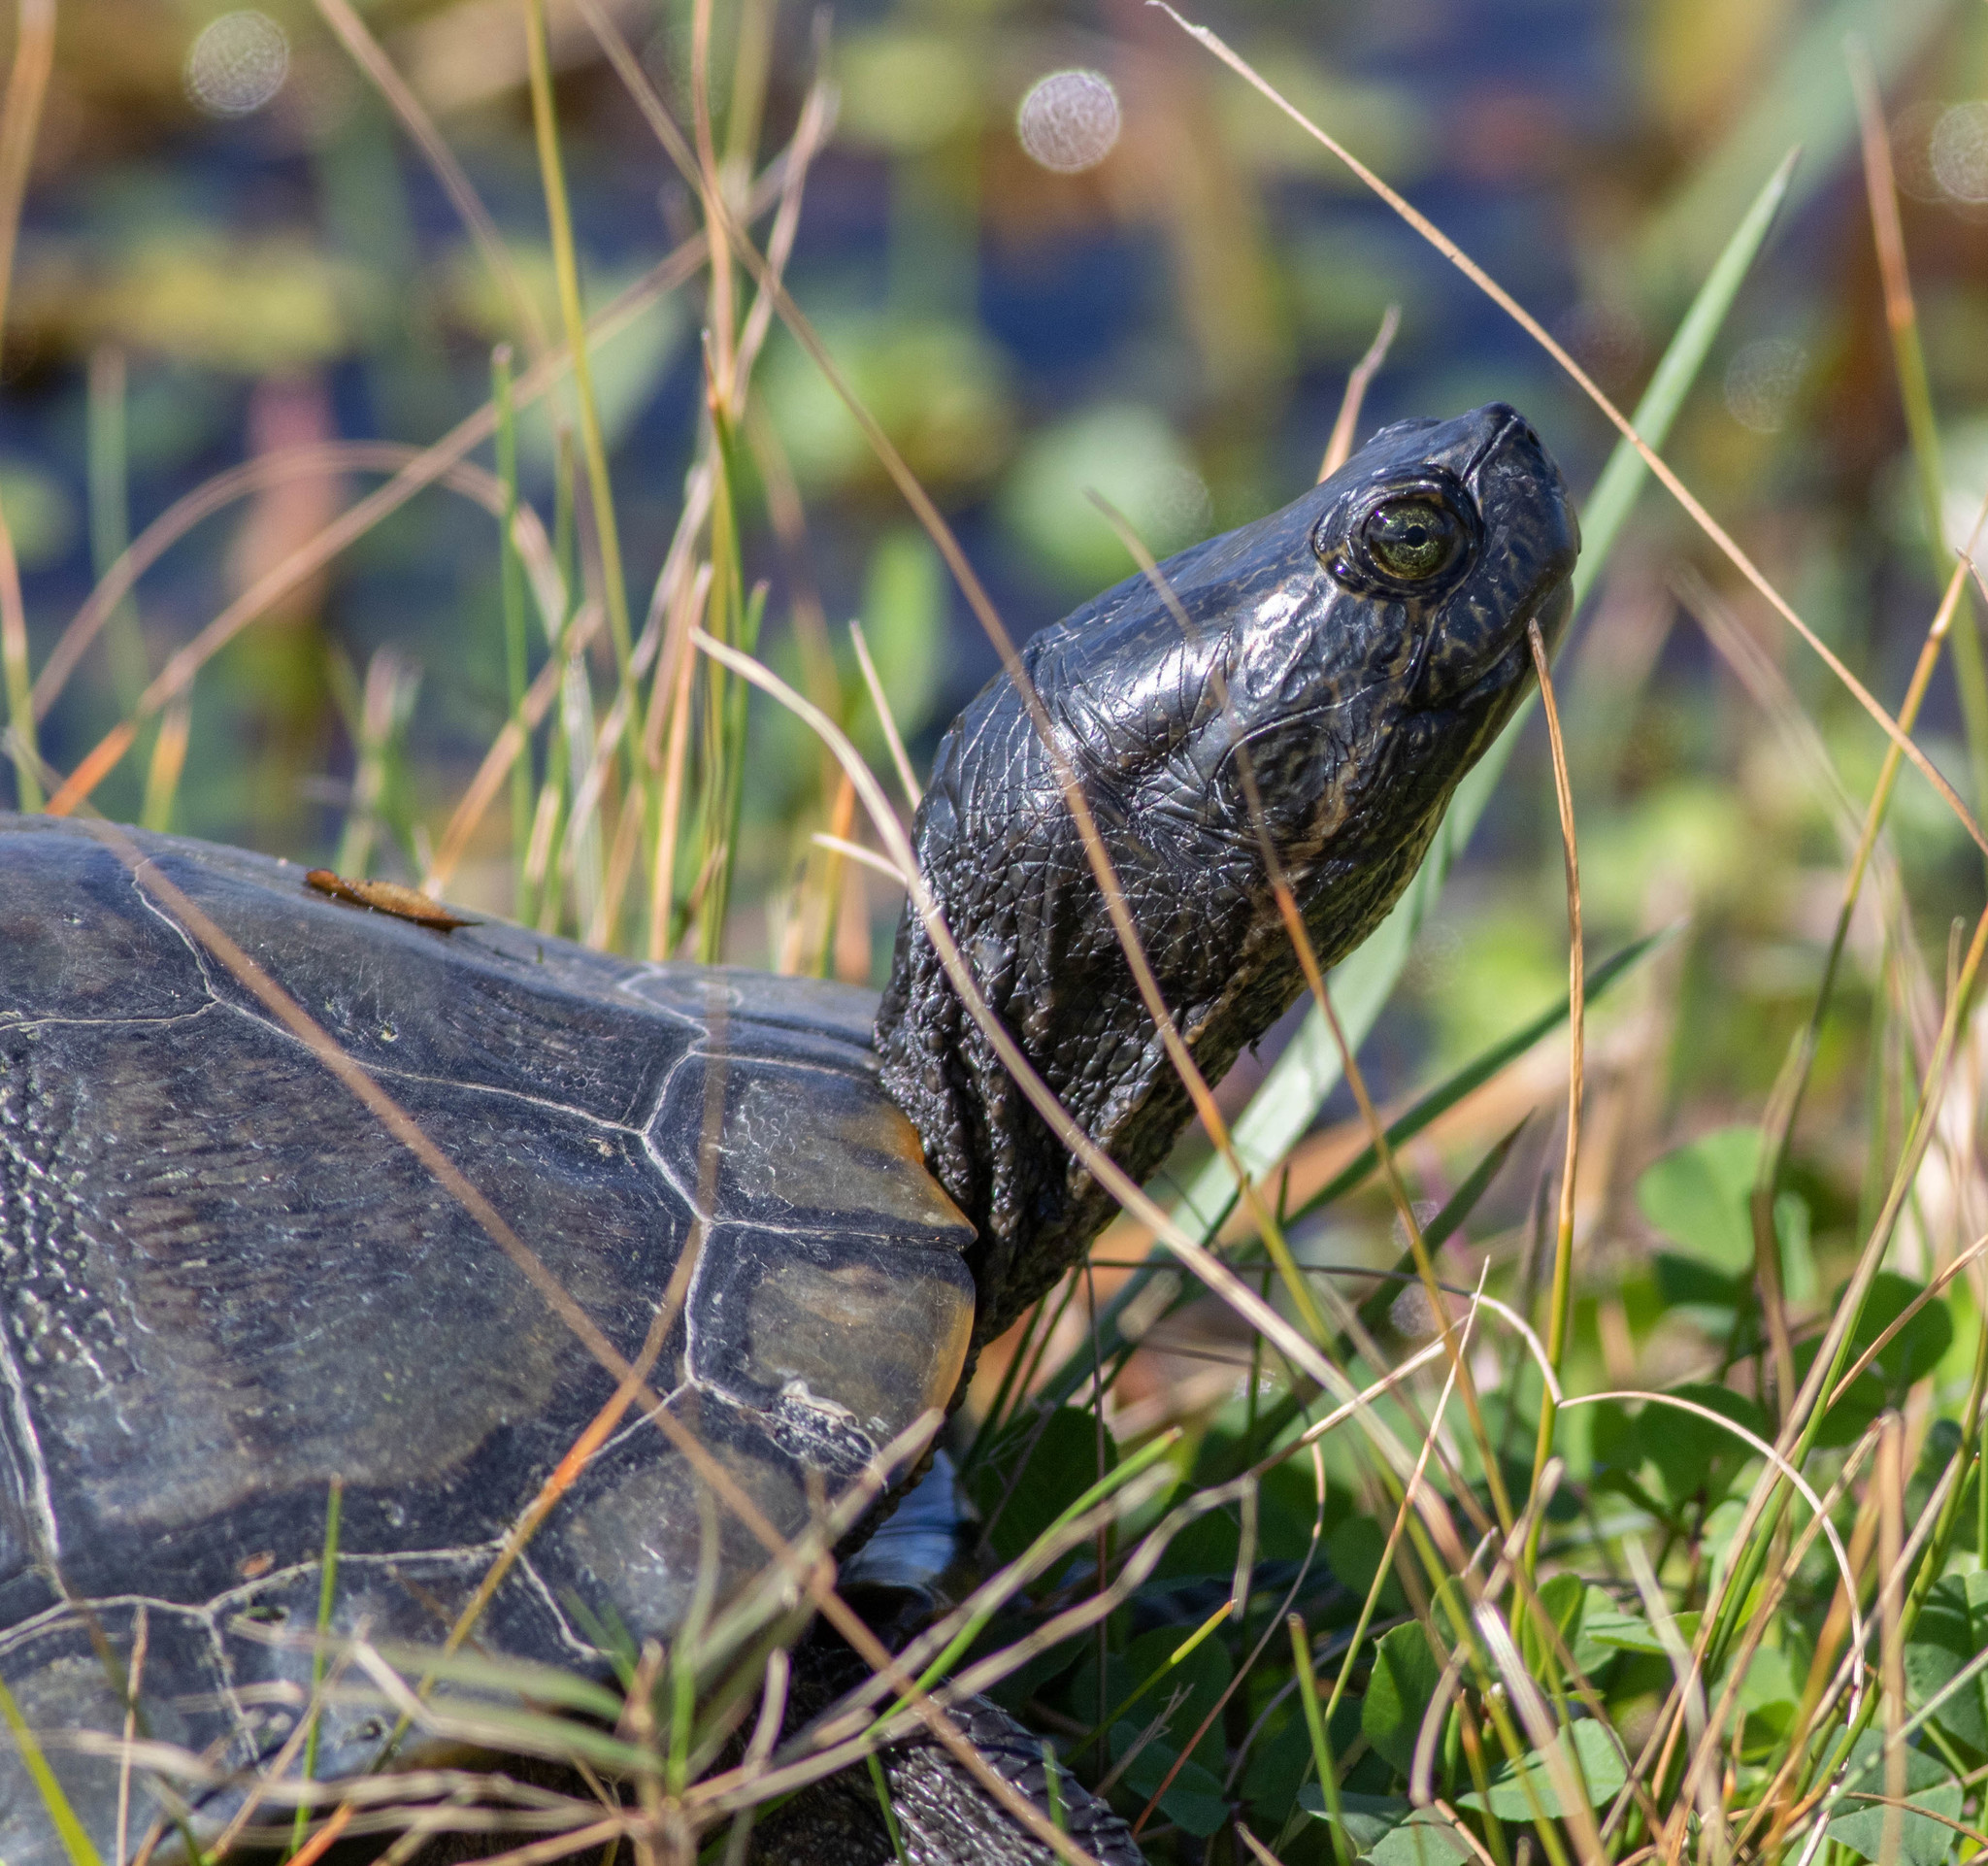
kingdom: Animalia
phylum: Chordata
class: Testudines
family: Emydidae
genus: Trachemys
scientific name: Trachemys scripta
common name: Slider
